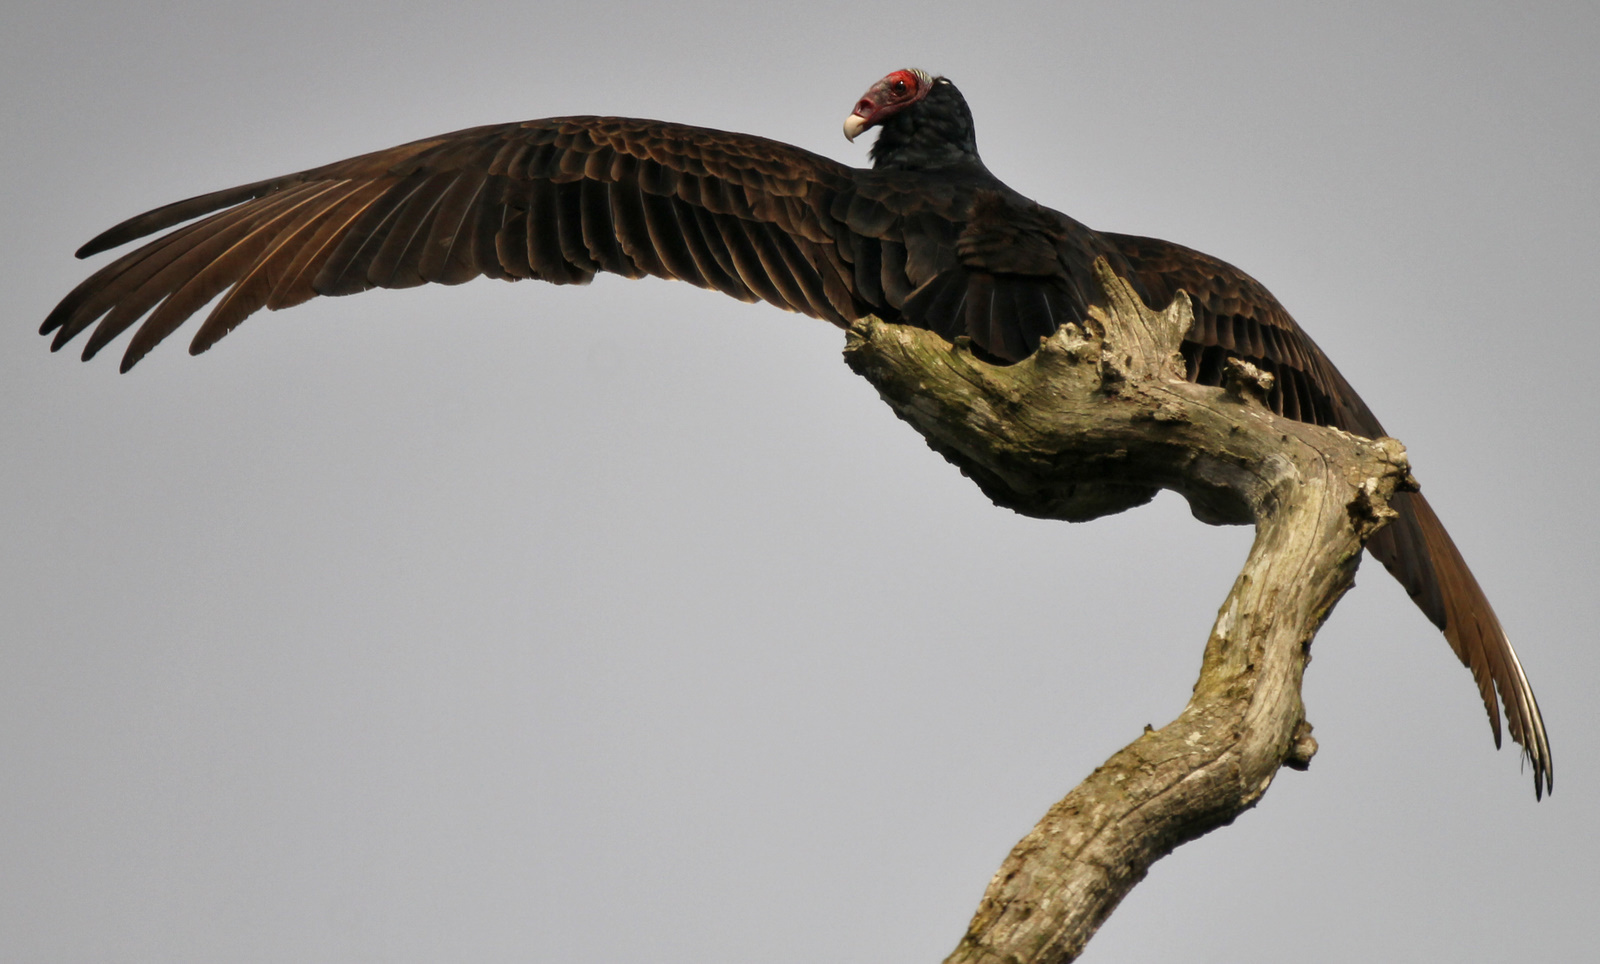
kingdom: Animalia
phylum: Chordata
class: Aves
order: Accipitriformes
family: Cathartidae
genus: Cathartes
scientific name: Cathartes aura
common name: Turkey vulture
